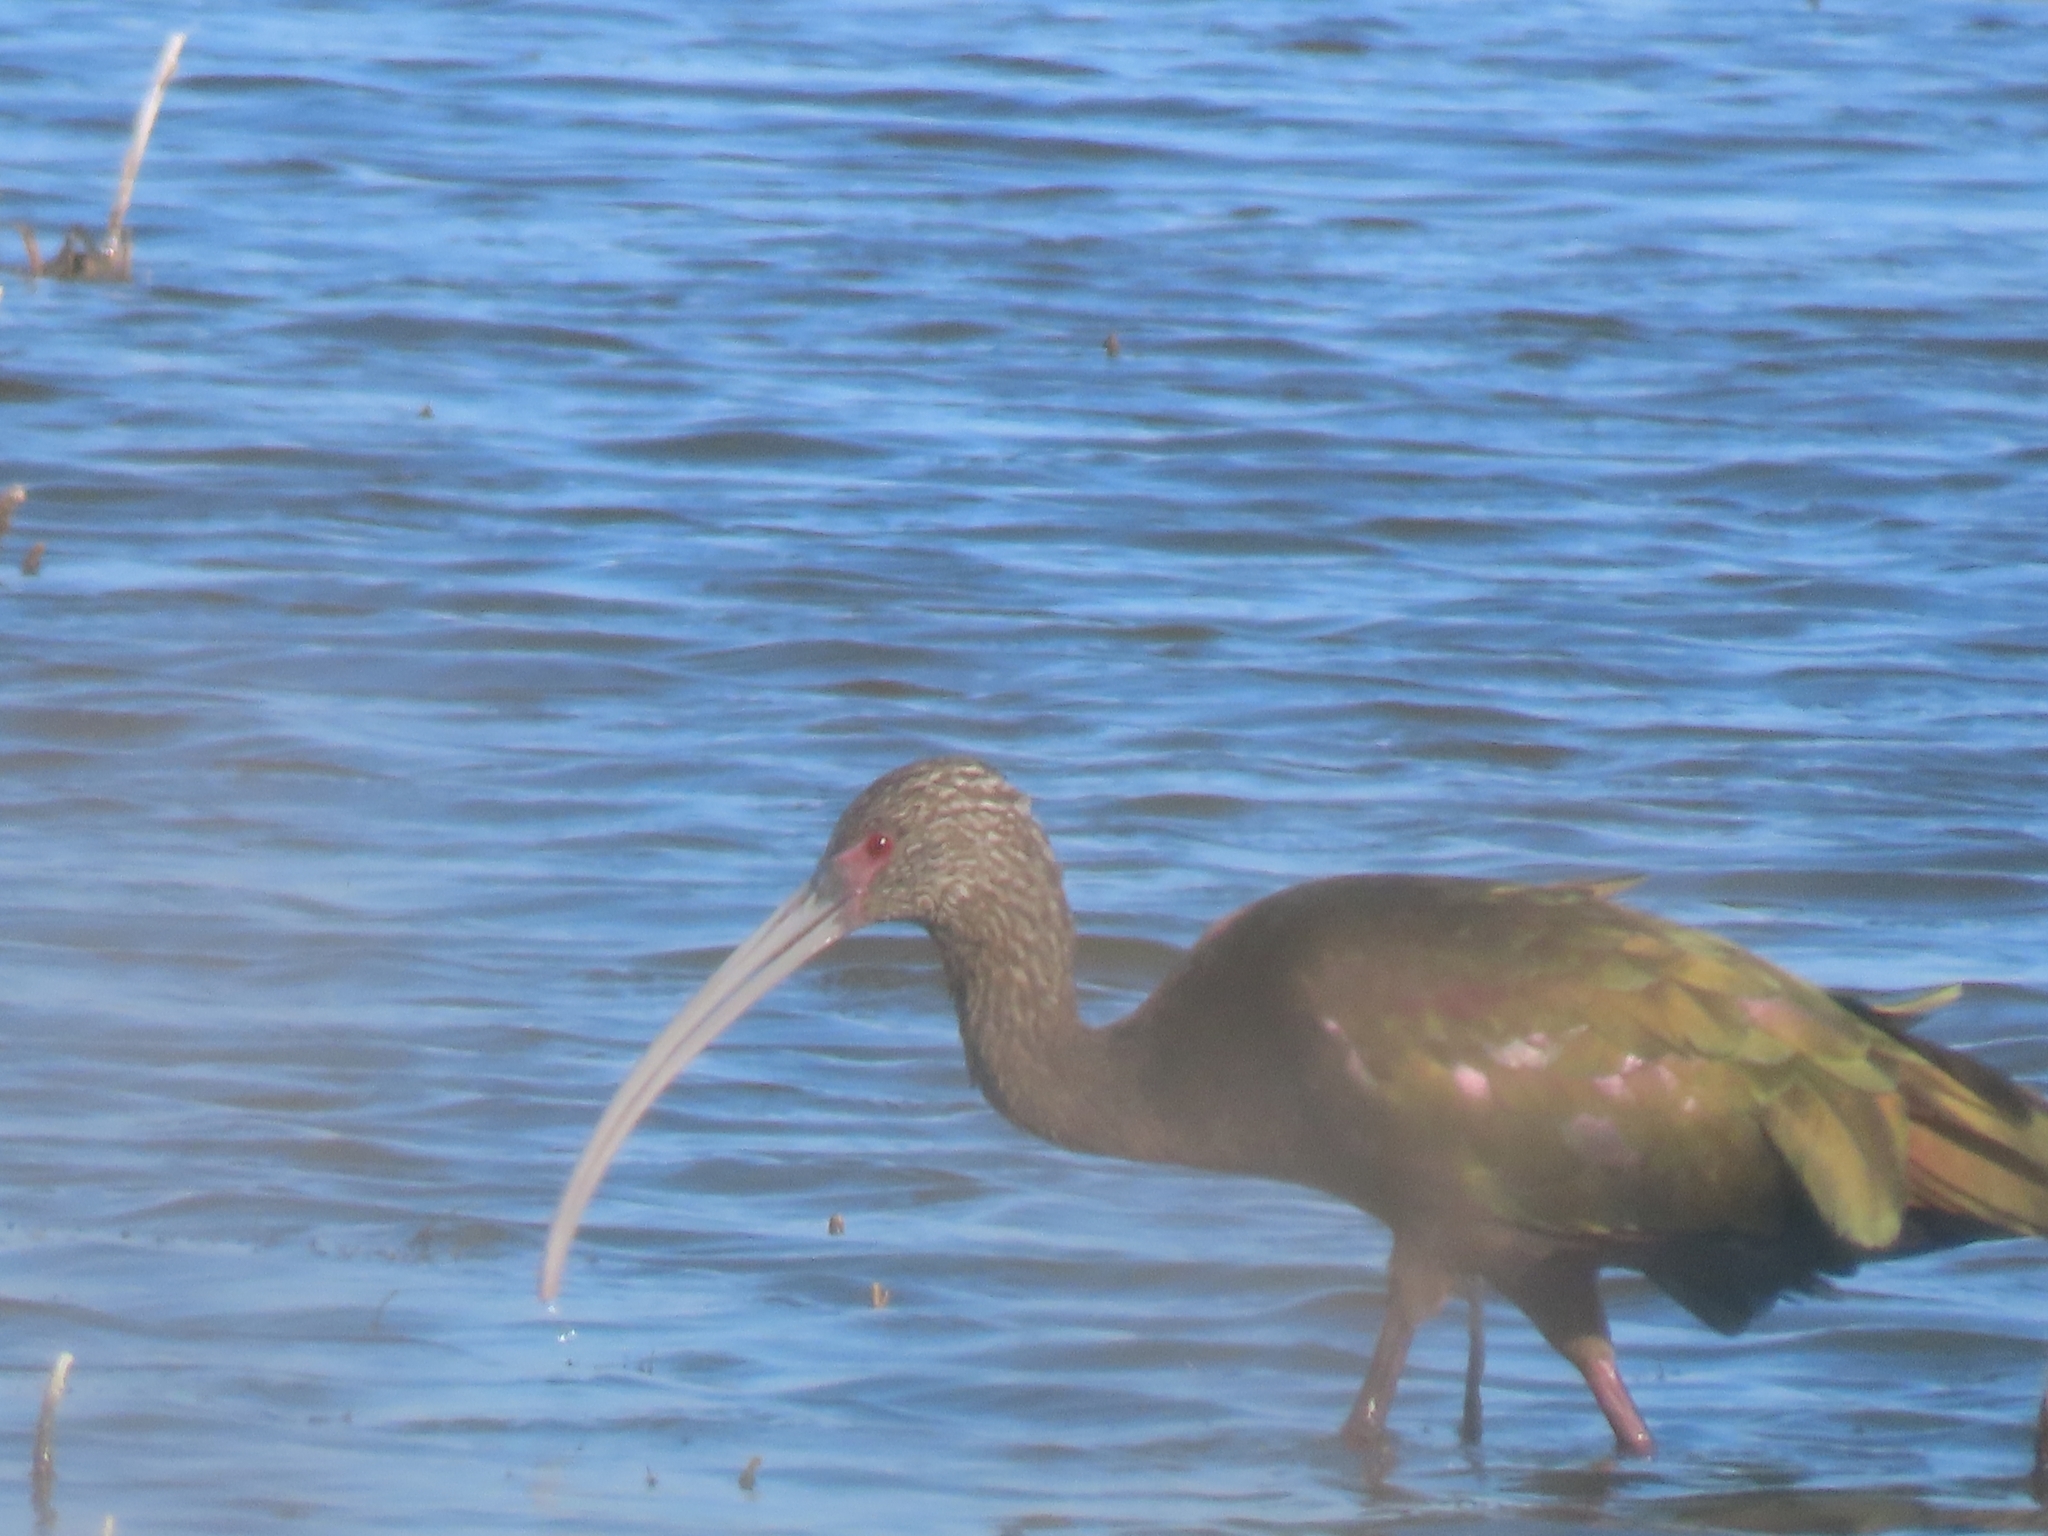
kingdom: Animalia
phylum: Chordata
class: Aves
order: Pelecaniformes
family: Threskiornithidae
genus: Plegadis
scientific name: Plegadis chihi
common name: White-faced ibis
